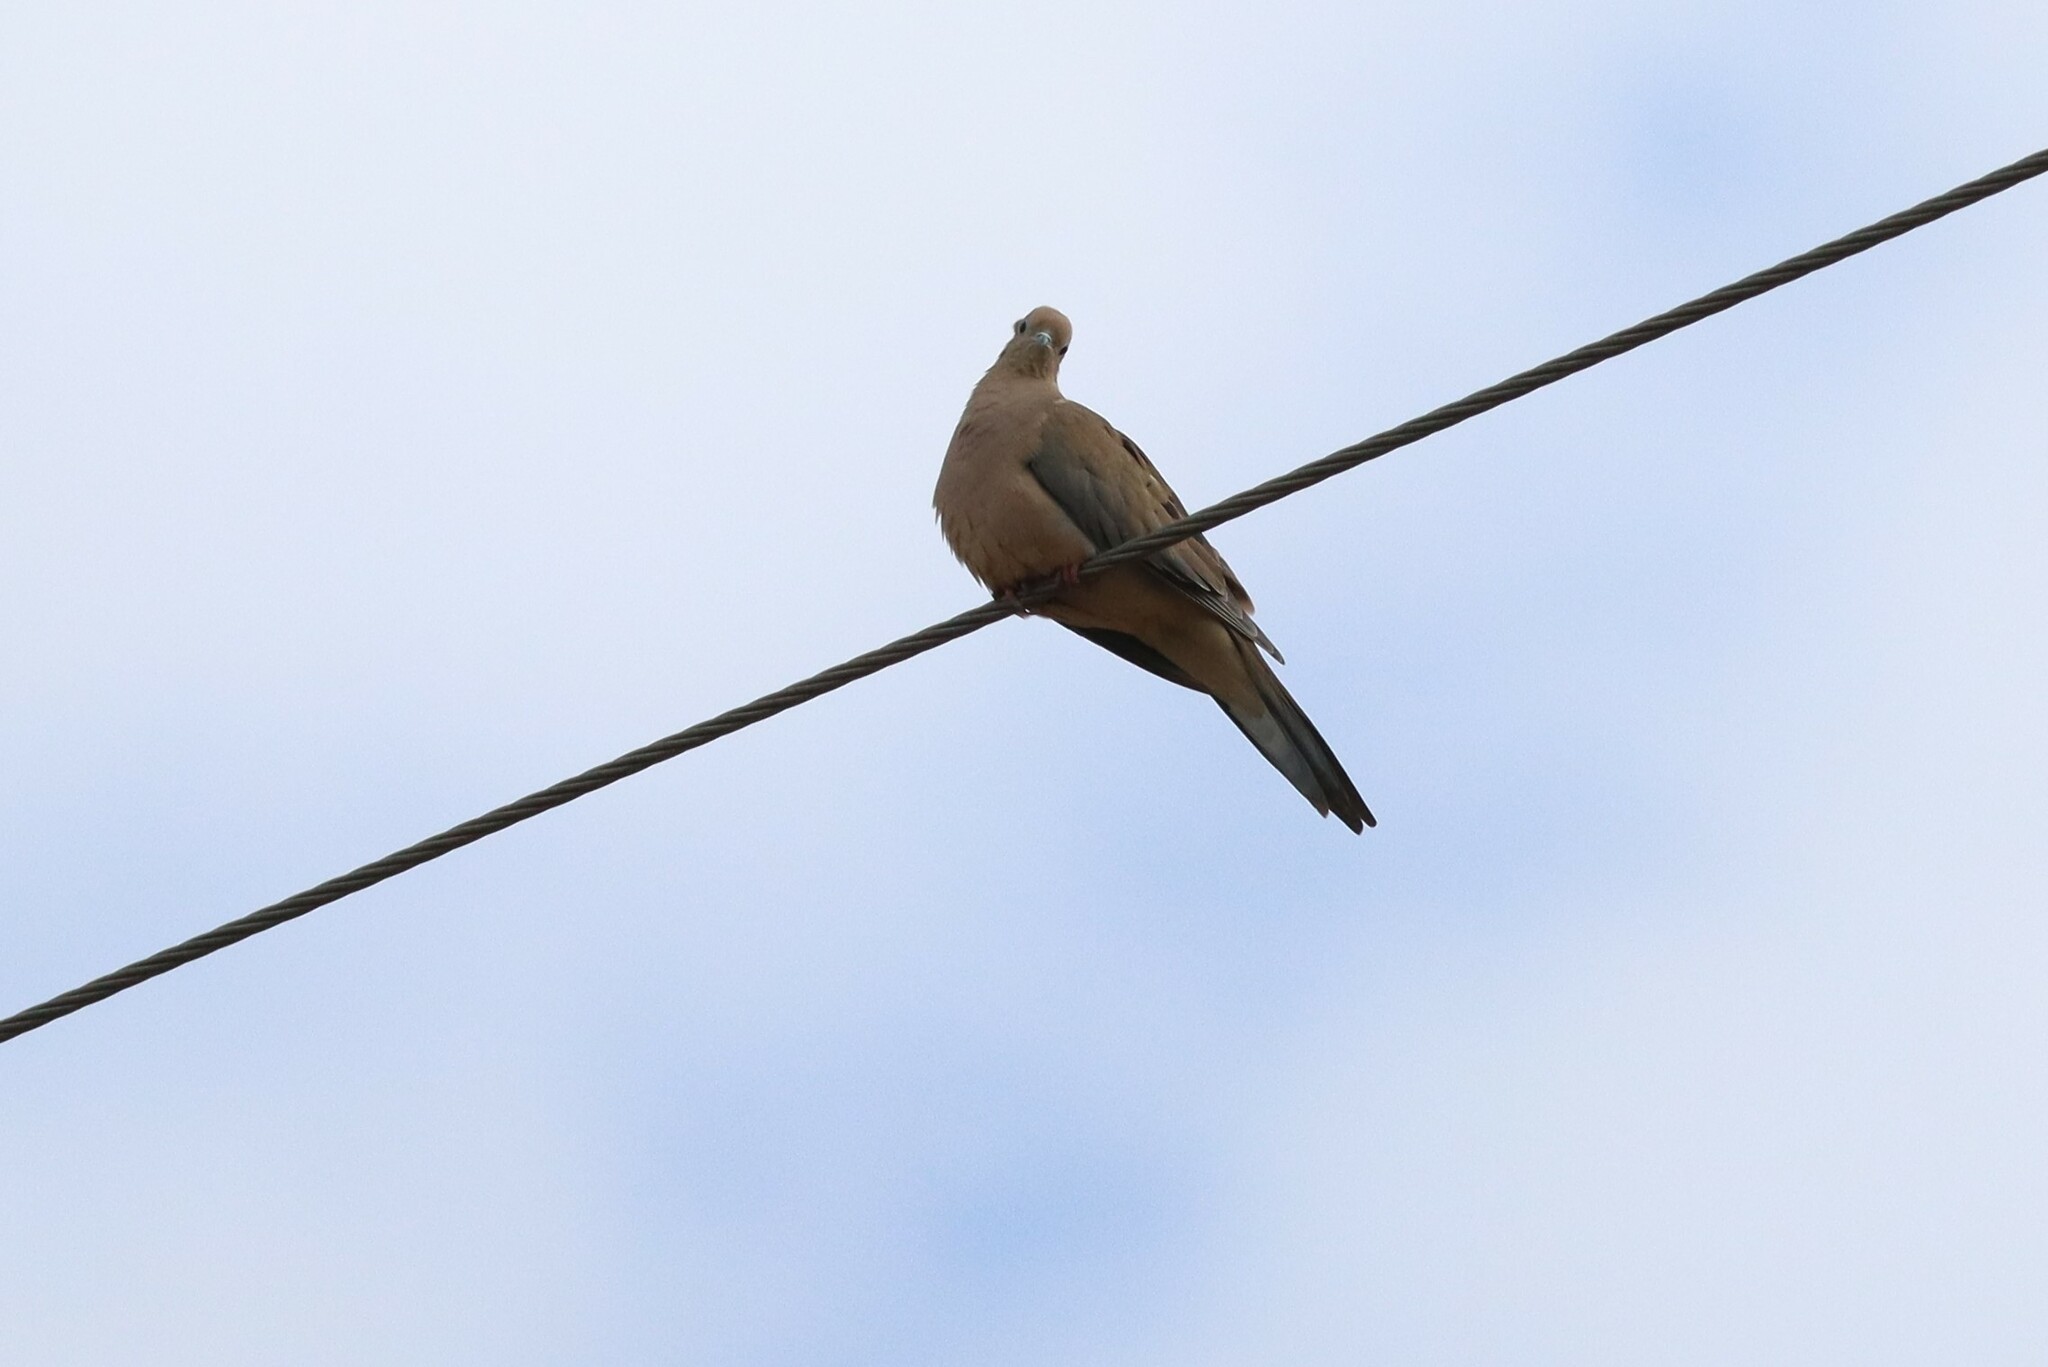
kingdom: Animalia
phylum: Chordata
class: Aves
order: Columbiformes
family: Columbidae
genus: Zenaida
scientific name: Zenaida macroura
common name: Mourning dove
